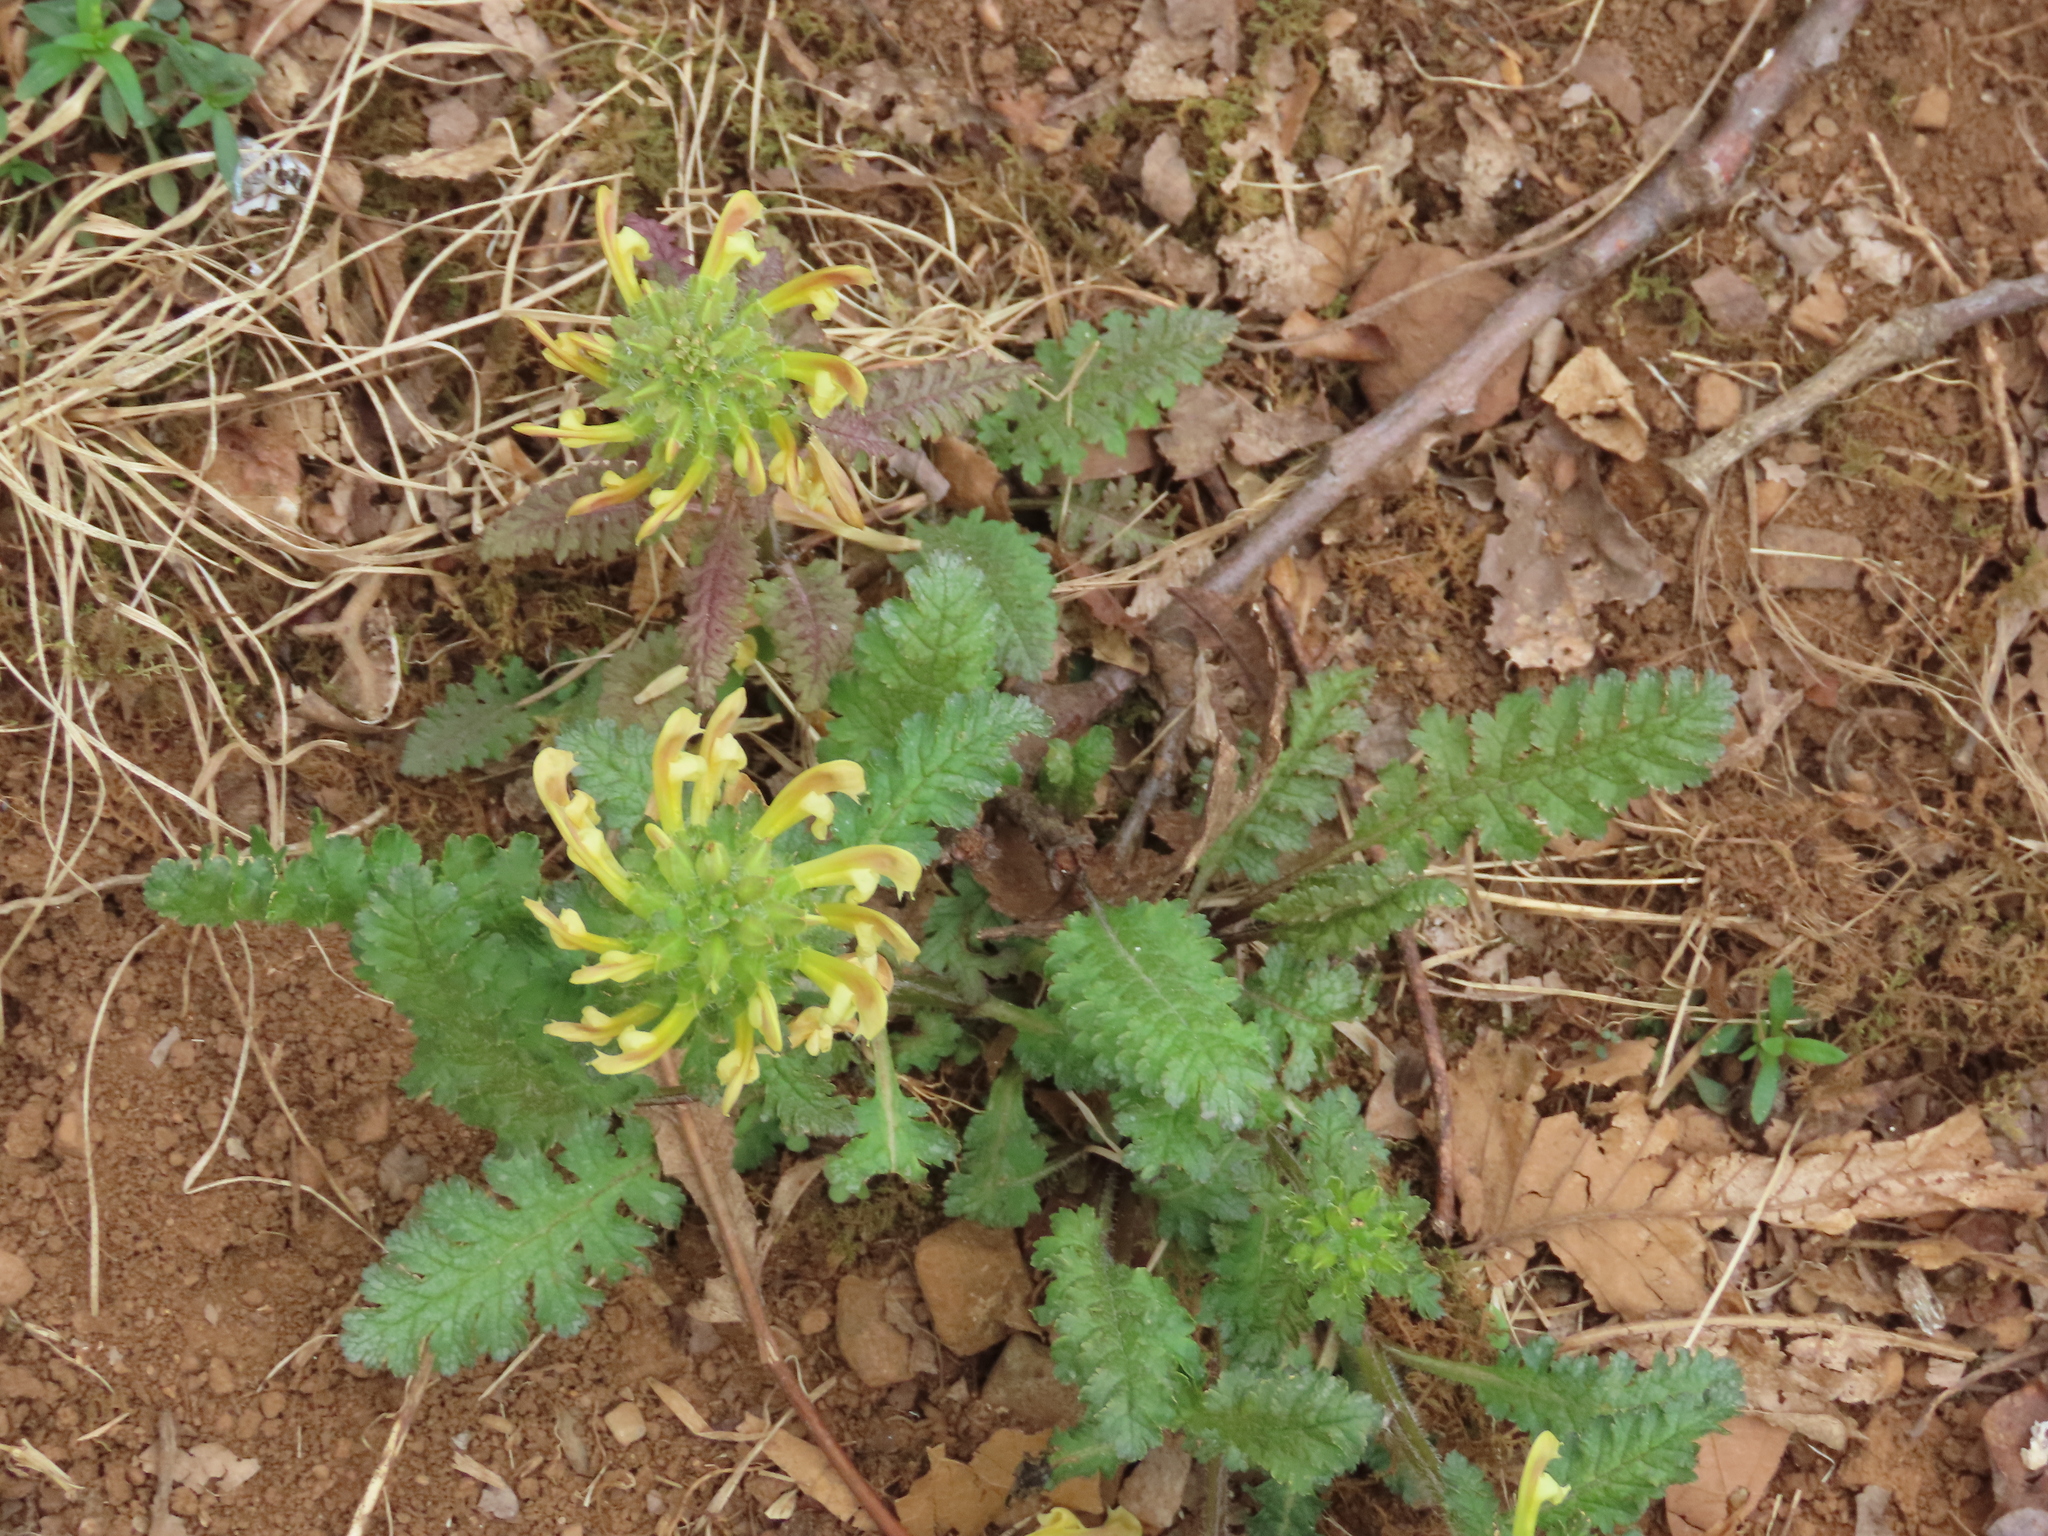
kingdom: Plantae
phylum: Tracheophyta
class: Magnoliopsida
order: Lamiales
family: Orobanchaceae
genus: Pedicularis
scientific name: Pedicularis canadensis
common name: Early lousewort
